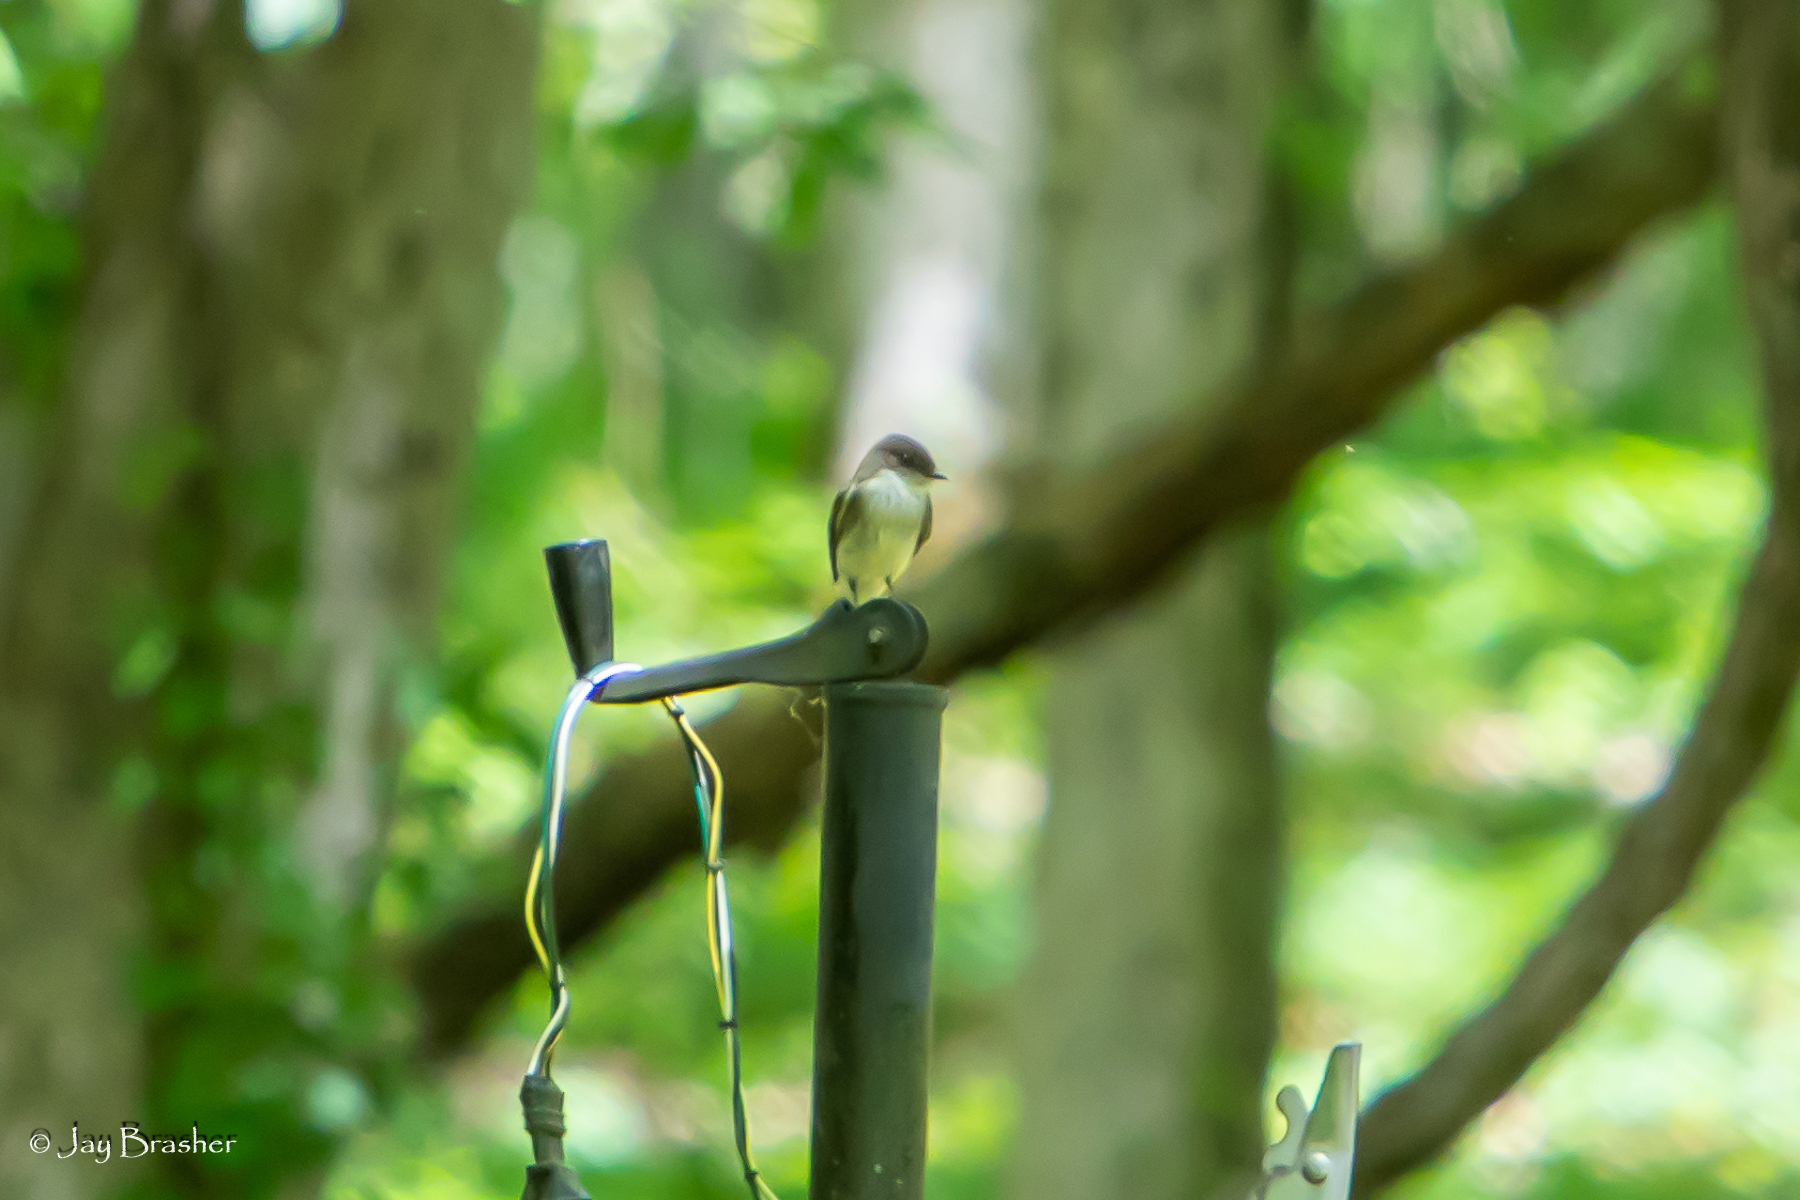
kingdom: Animalia
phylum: Chordata
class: Aves
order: Passeriformes
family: Tyrannidae
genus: Sayornis
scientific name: Sayornis phoebe
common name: Eastern phoebe
